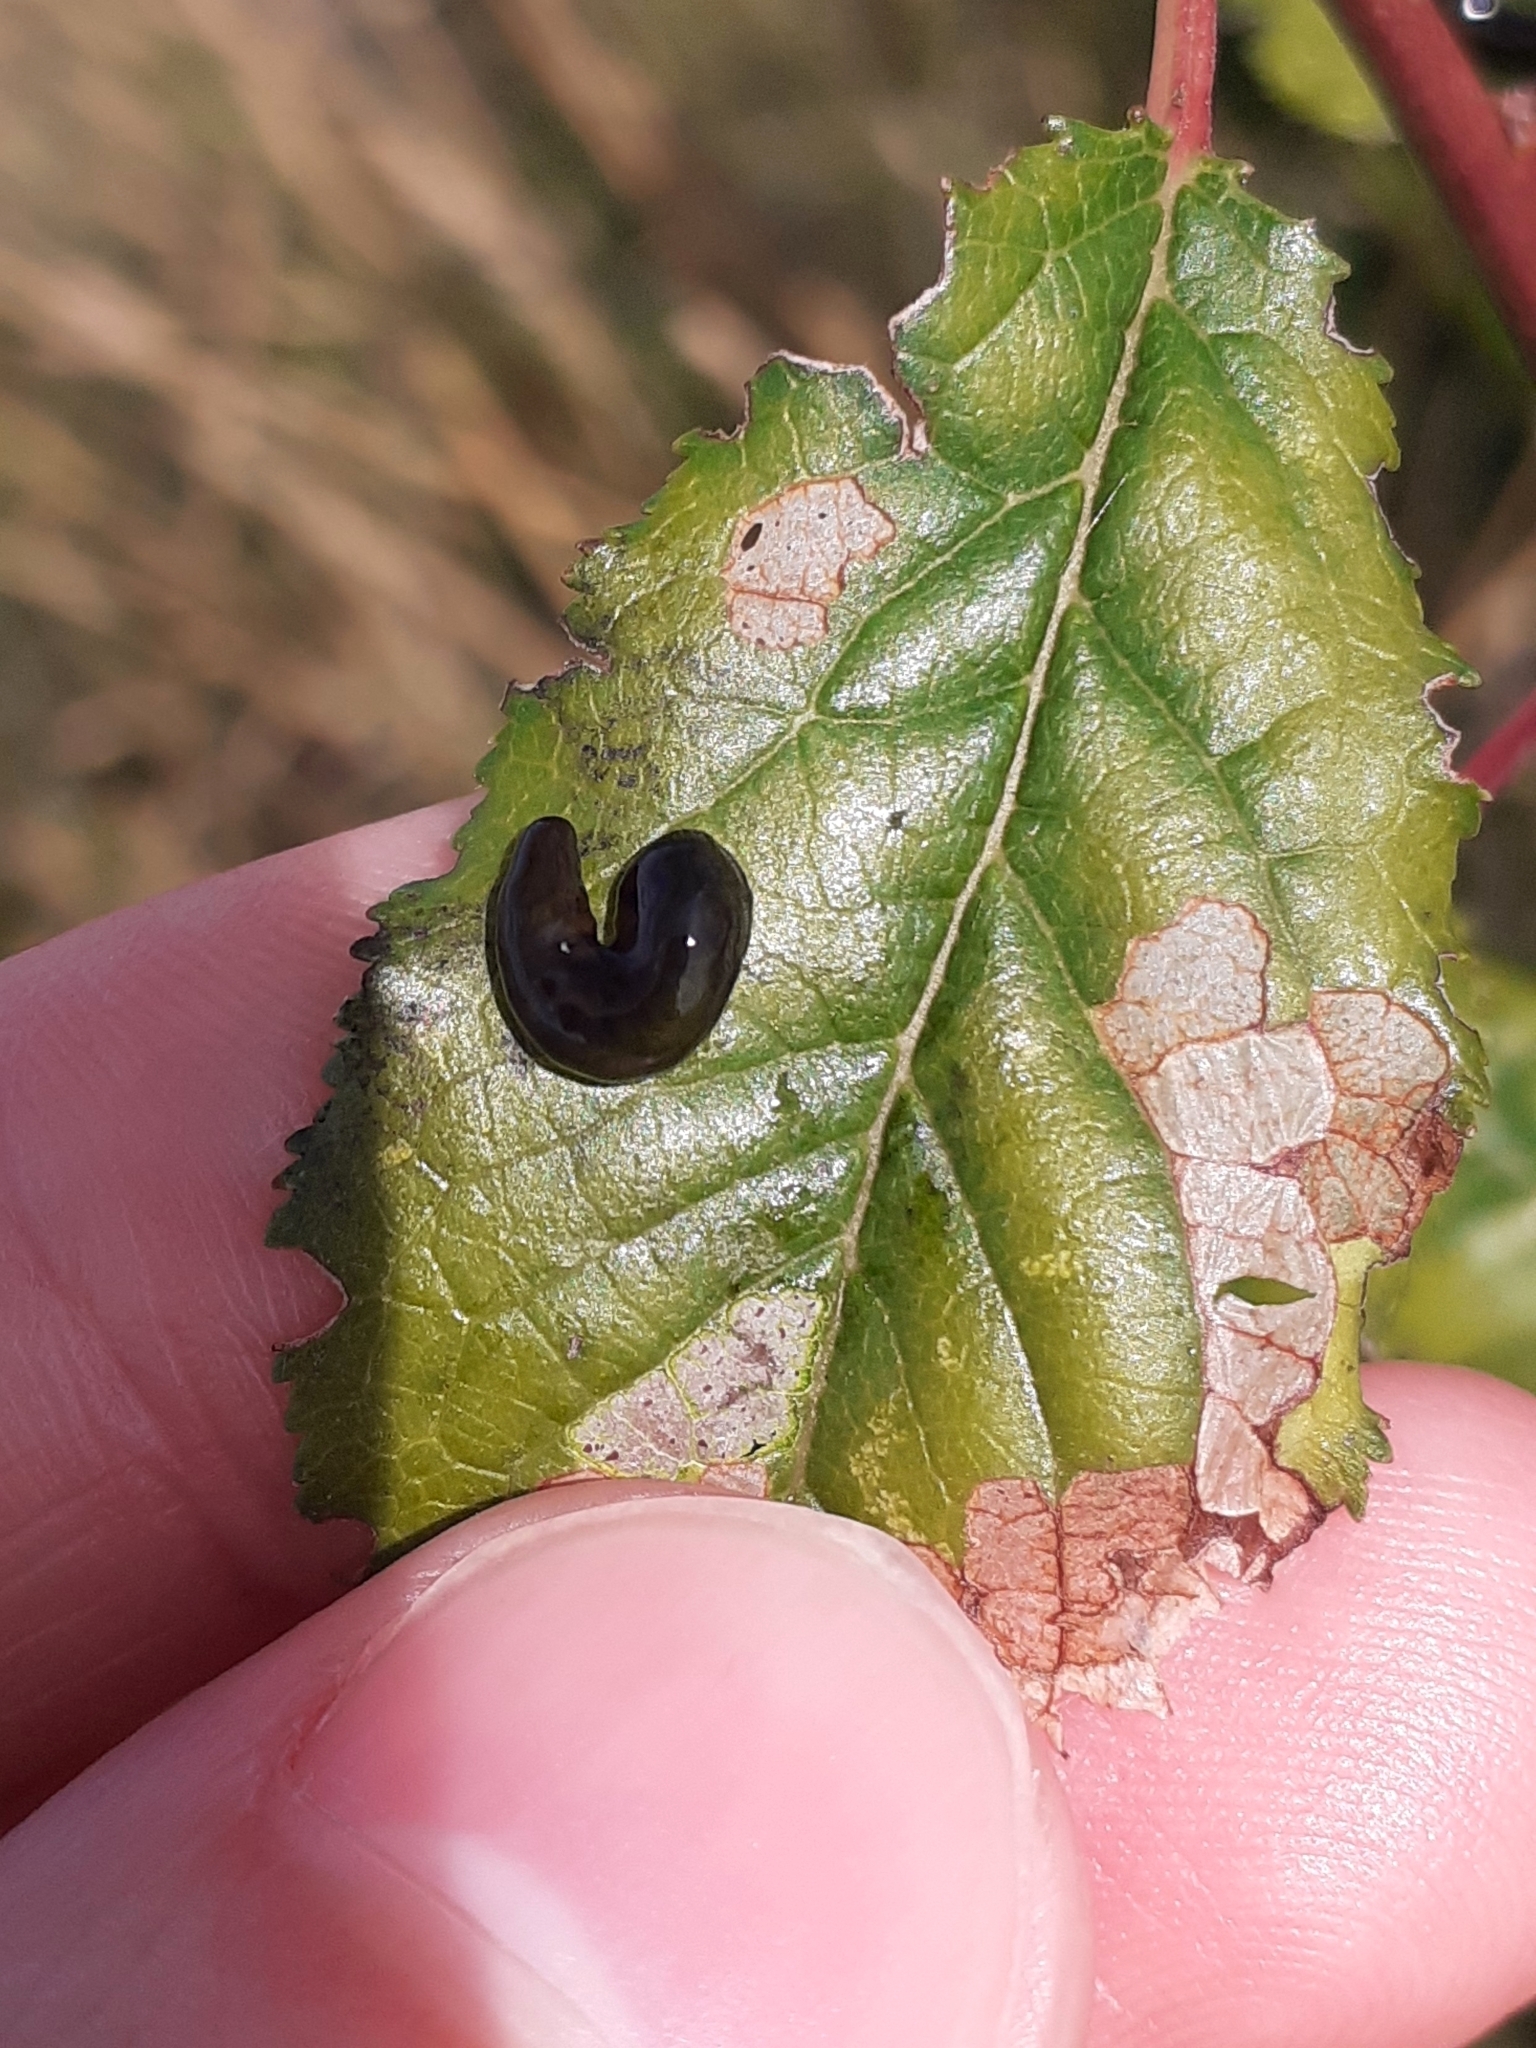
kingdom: Animalia
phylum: Arthropoda
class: Insecta
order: Hymenoptera
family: Tenthredinidae
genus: Caliroa
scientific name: Caliroa cerasi
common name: Pear sawfly
